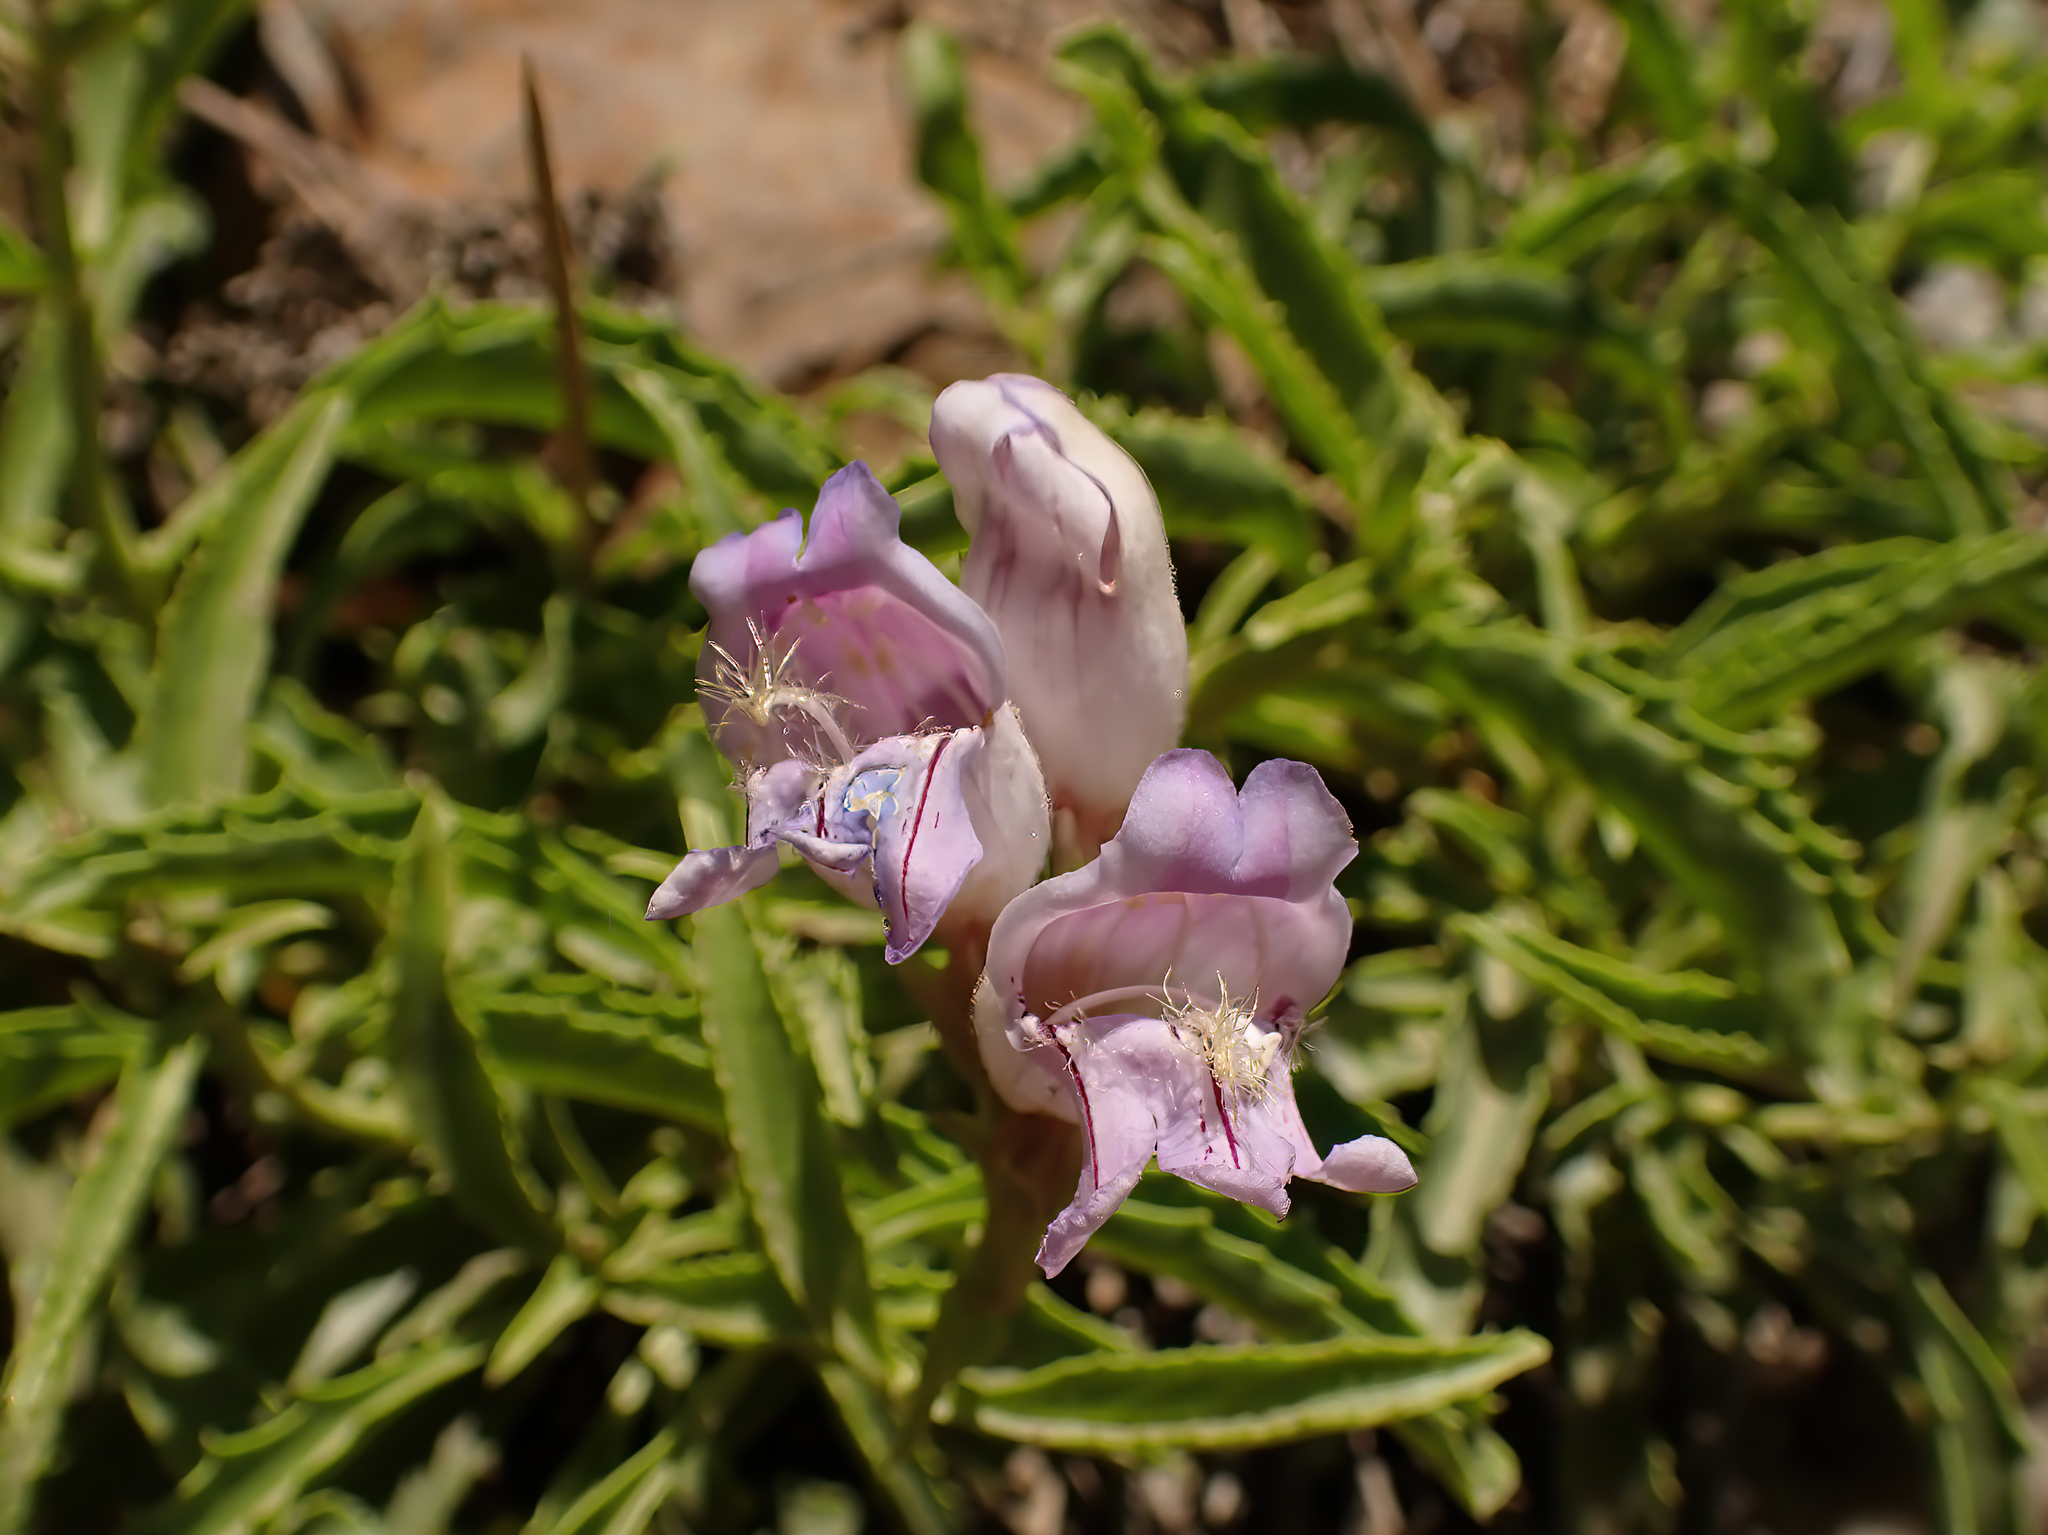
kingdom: Plantae
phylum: Tracheophyta
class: Magnoliopsida
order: Lamiales
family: Plantaginaceae
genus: Penstemon
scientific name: Penstemon grinnellii
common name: Grinnell's beardtongue
